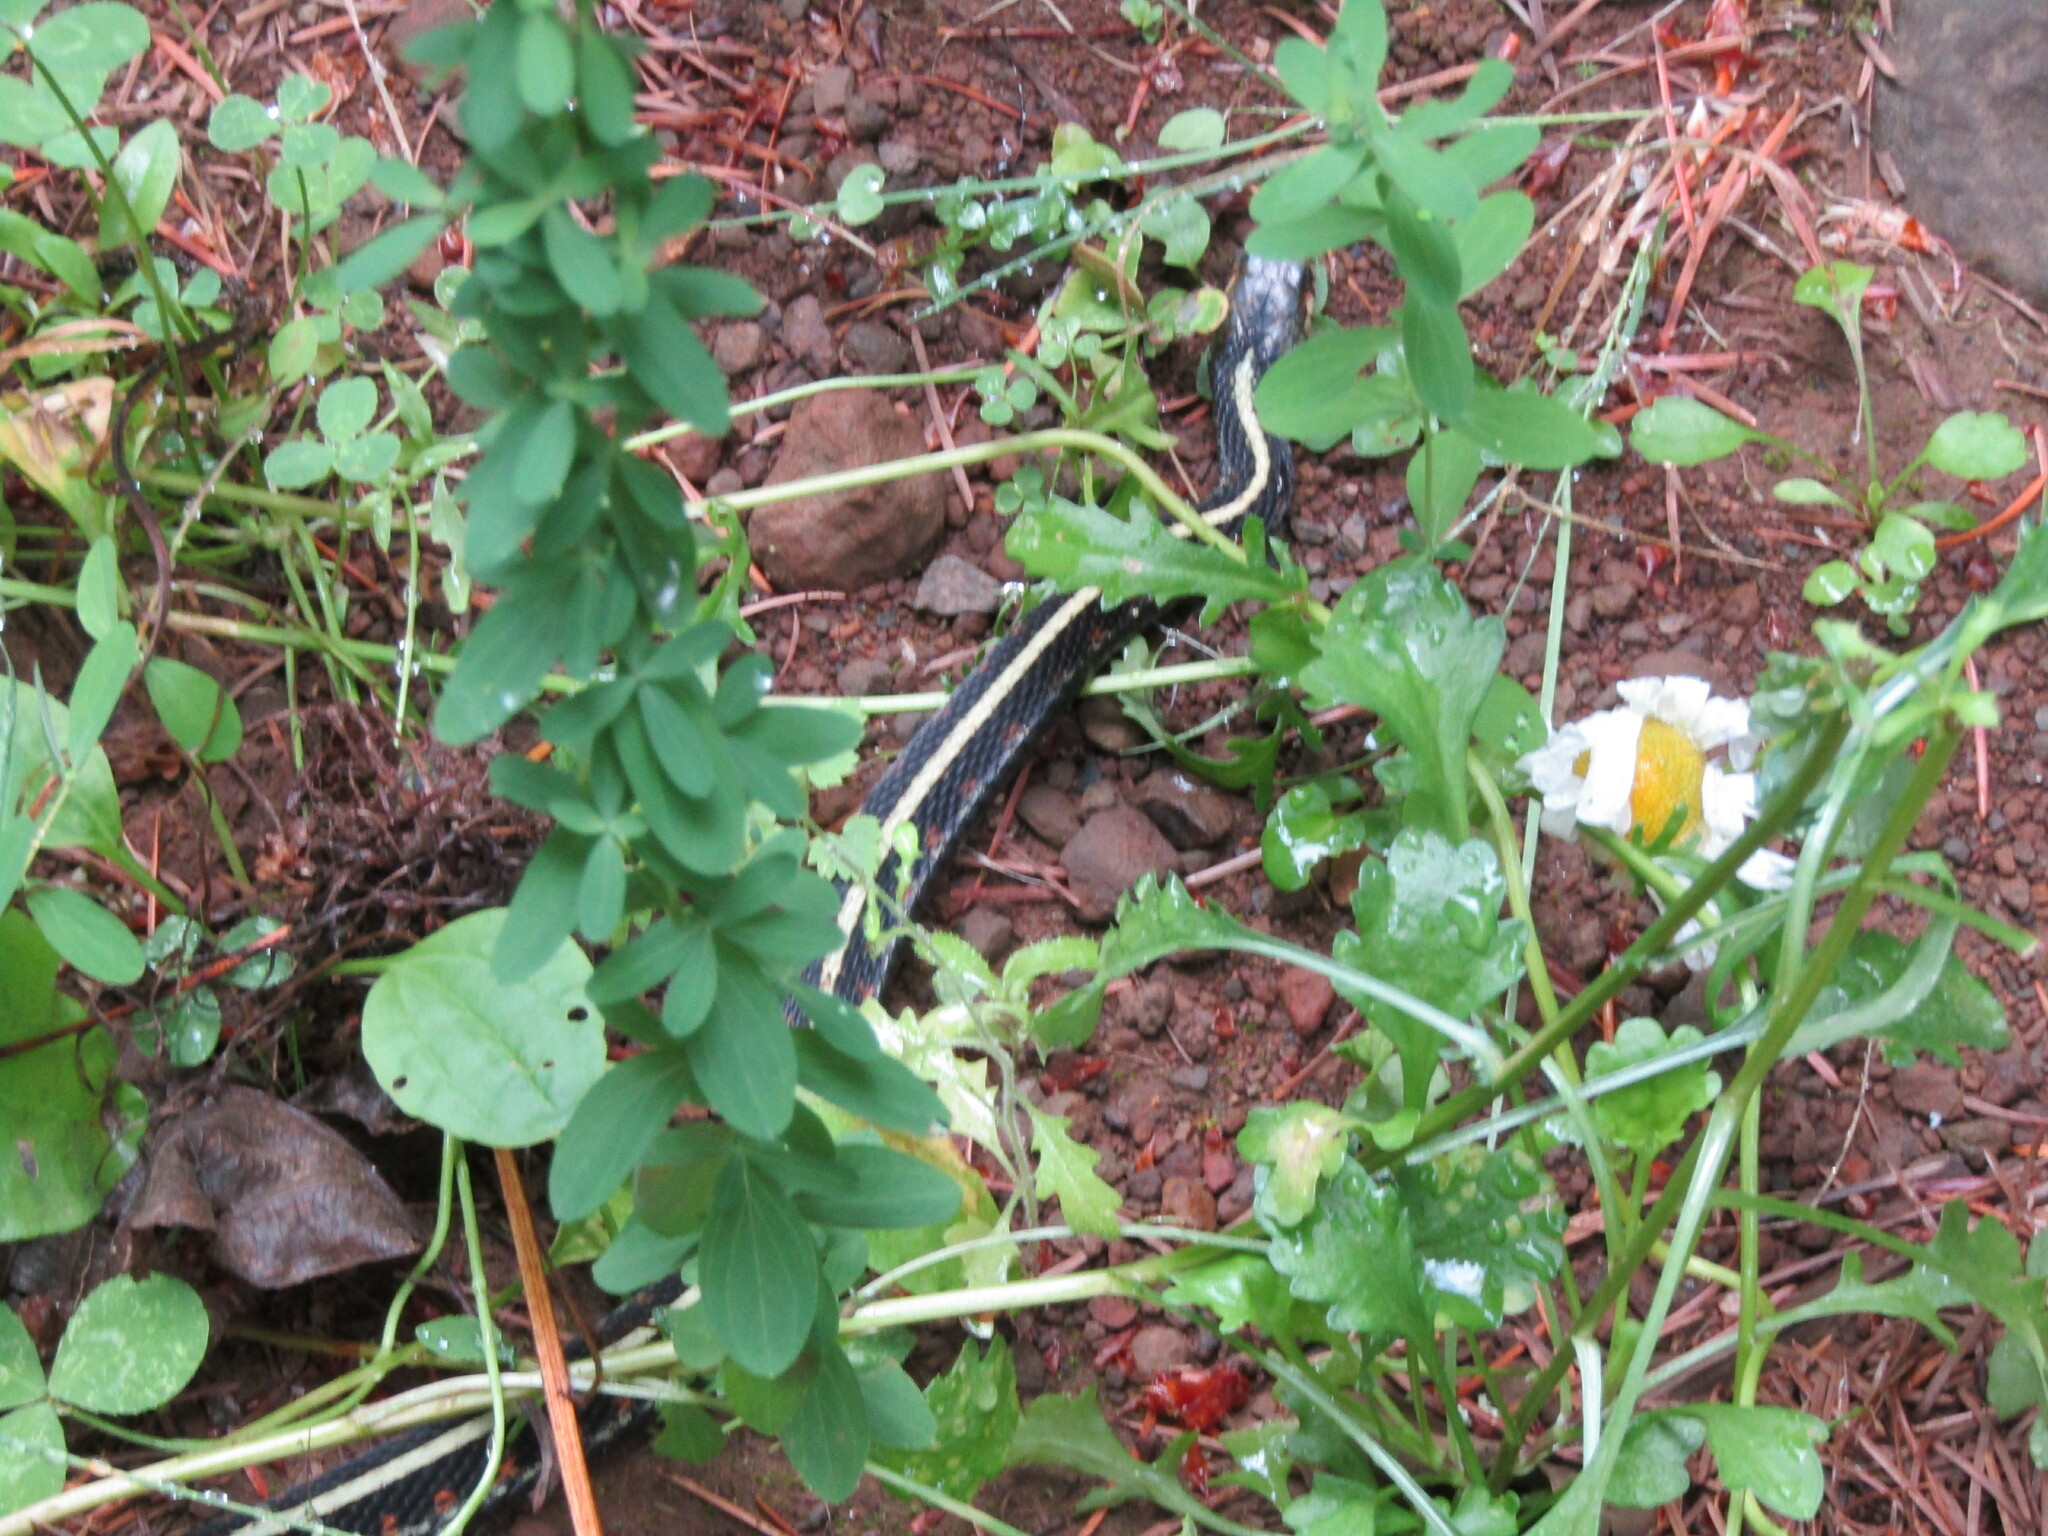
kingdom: Animalia
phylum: Chordata
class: Squamata
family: Colubridae
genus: Thamnophis
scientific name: Thamnophis sirtalis
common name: Common garter snake
